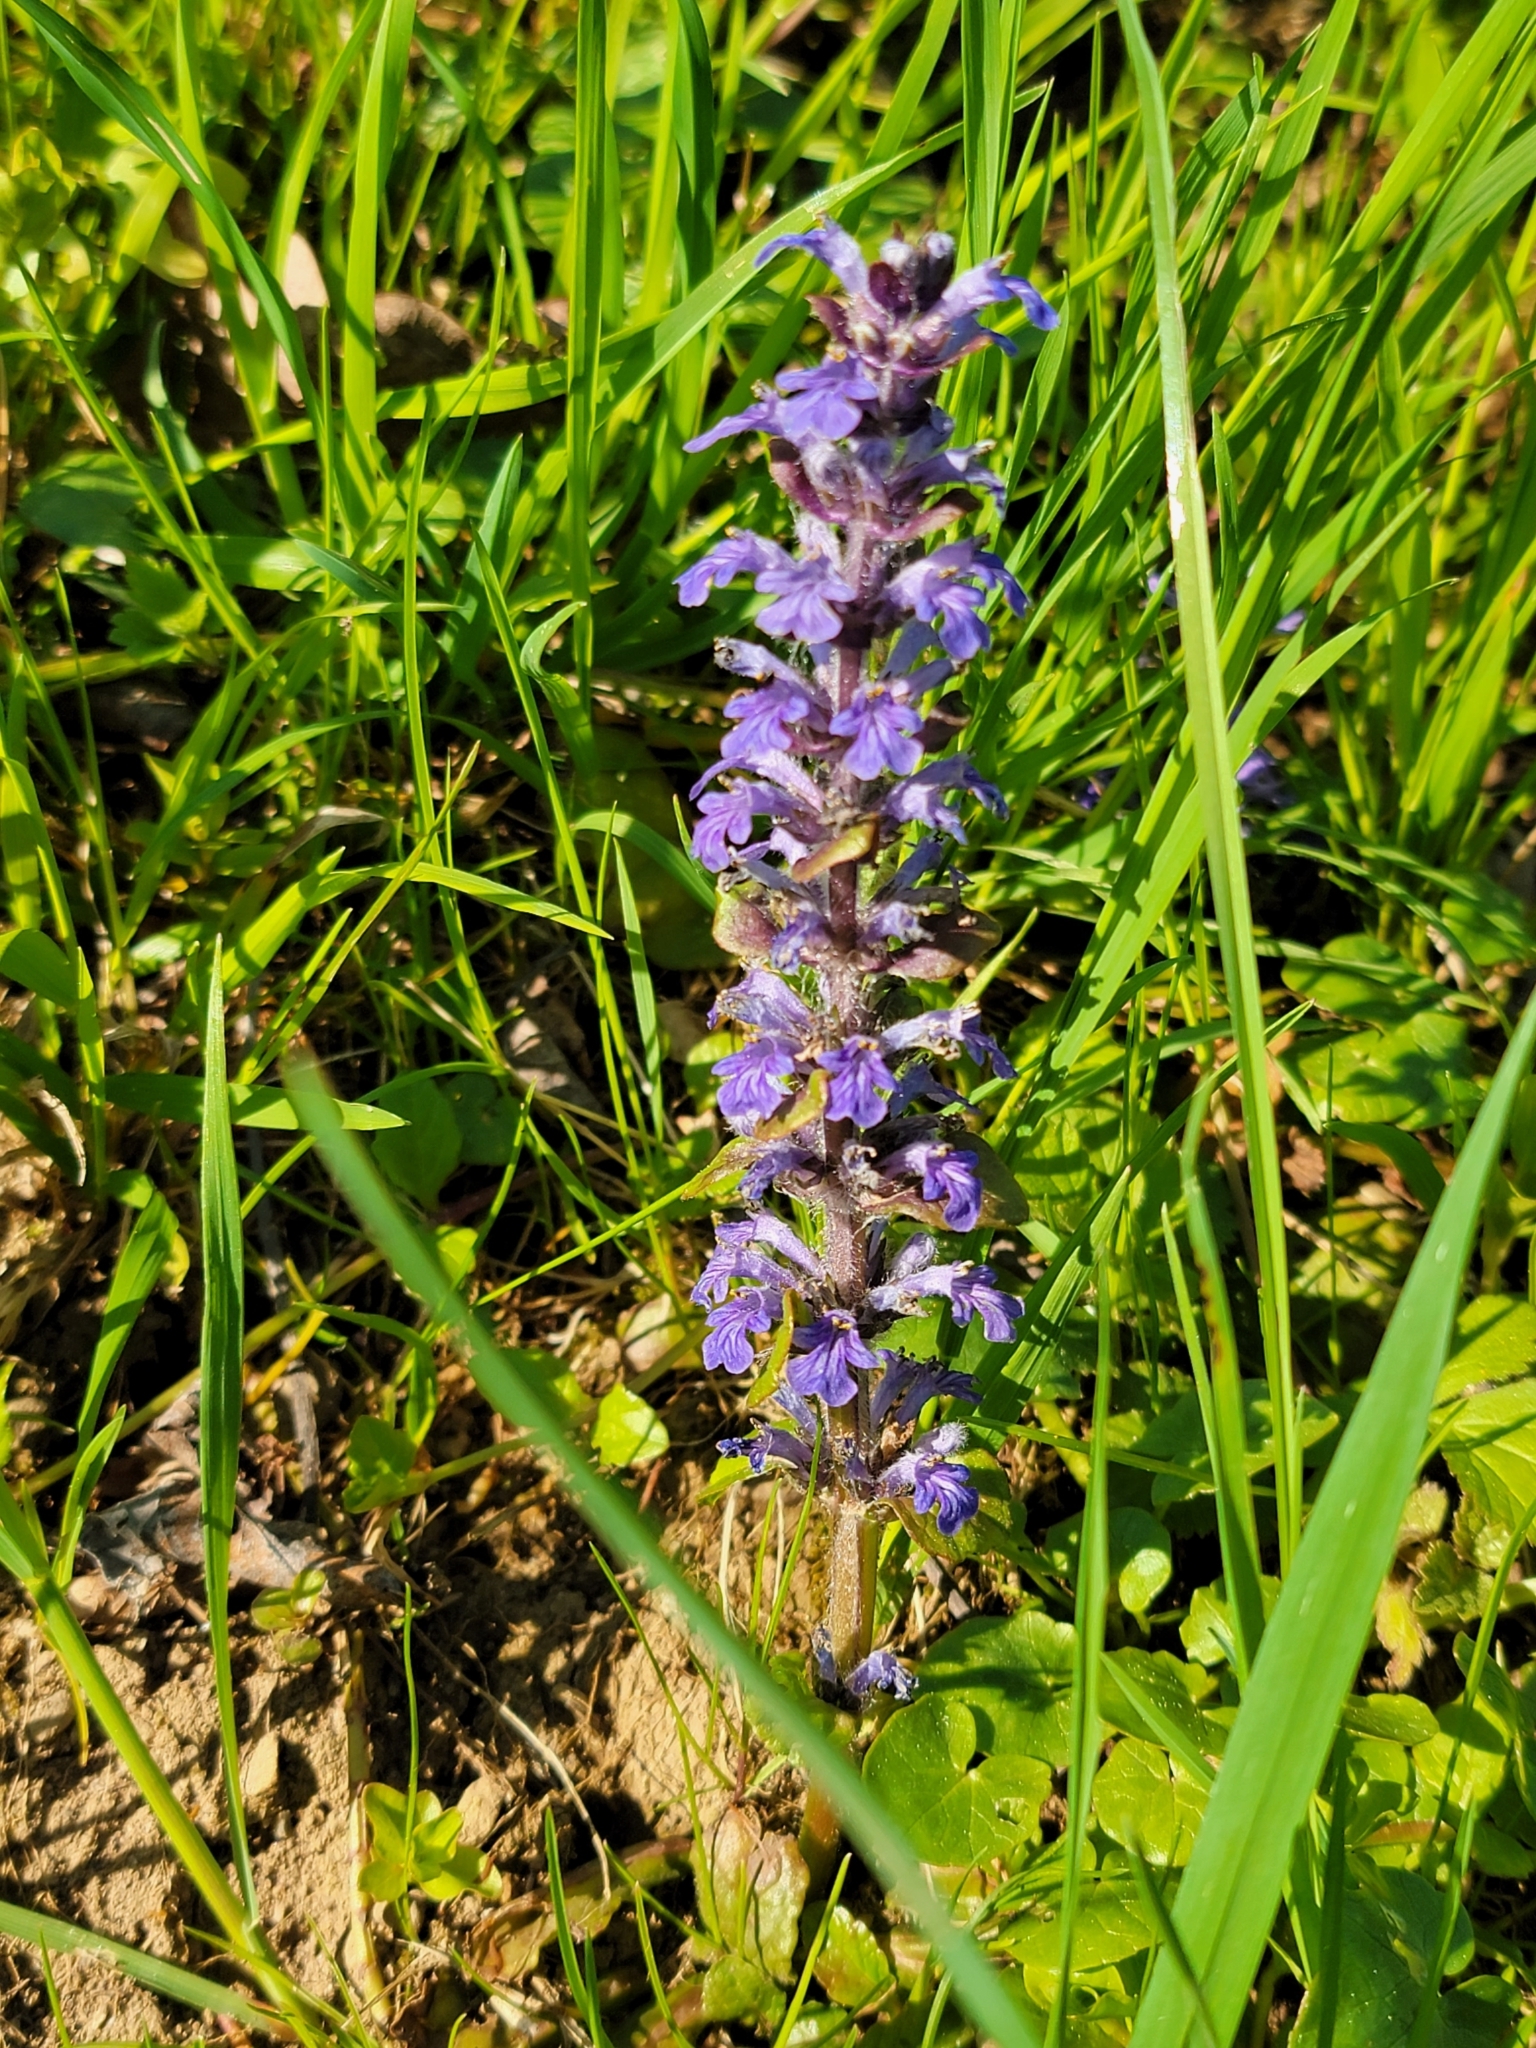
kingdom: Plantae
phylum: Tracheophyta
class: Magnoliopsida
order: Lamiales
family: Lamiaceae
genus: Ajuga
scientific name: Ajuga reptans
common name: Bugle
